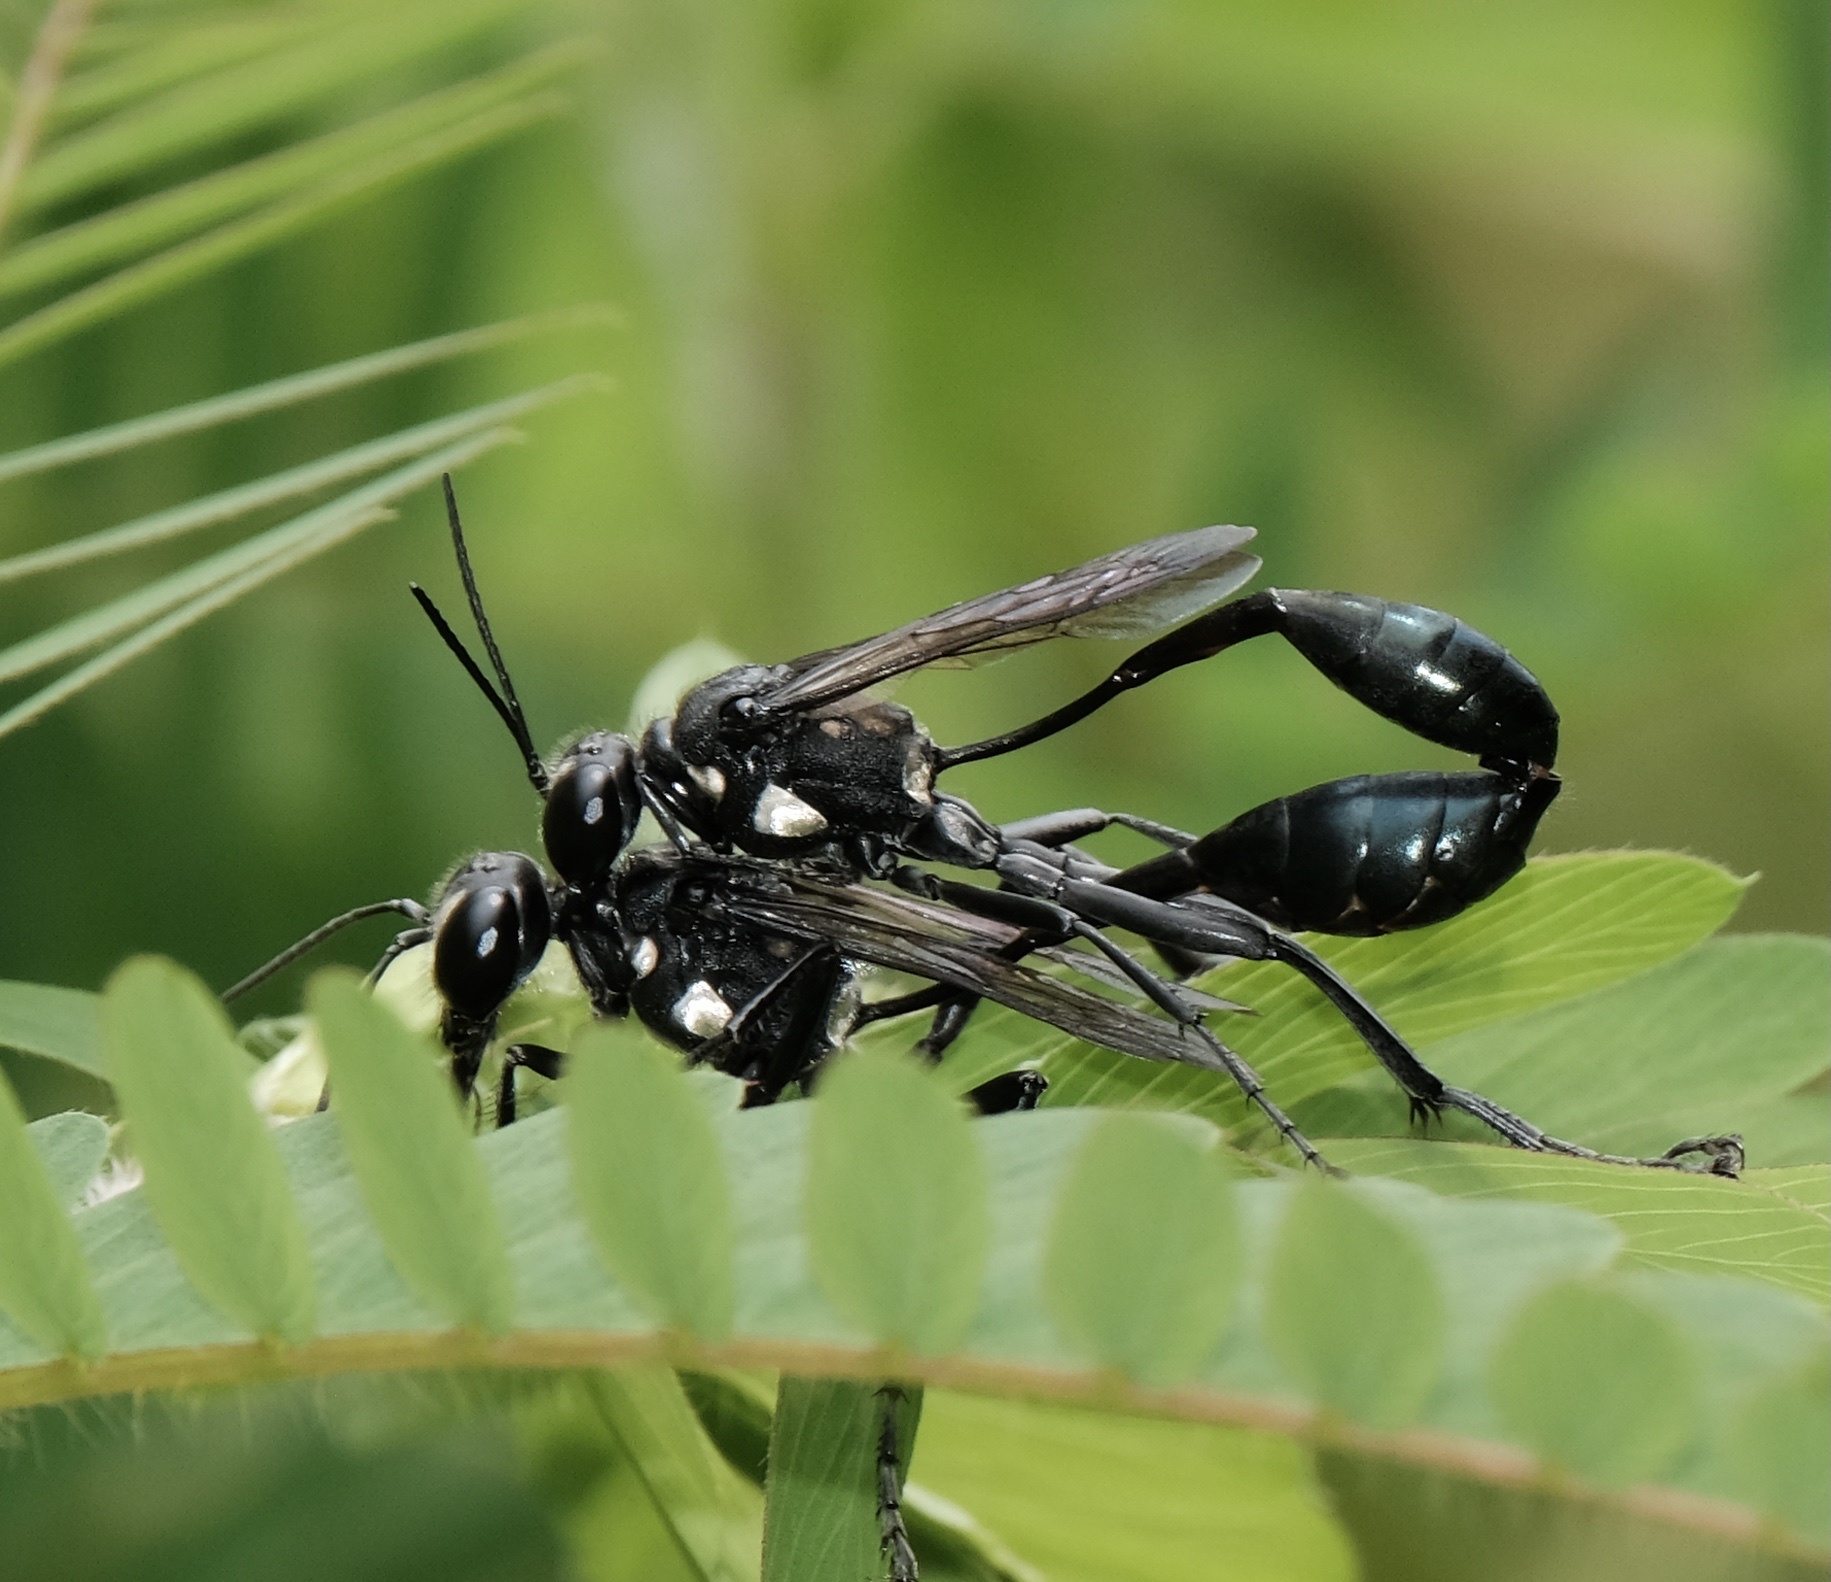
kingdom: Animalia
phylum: Arthropoda
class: Insecta
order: Hymenoptera
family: Sphecidae
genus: Eremnophila
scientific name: Eremnophila aureonotata
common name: Gold-marked thread-waisted wasp
